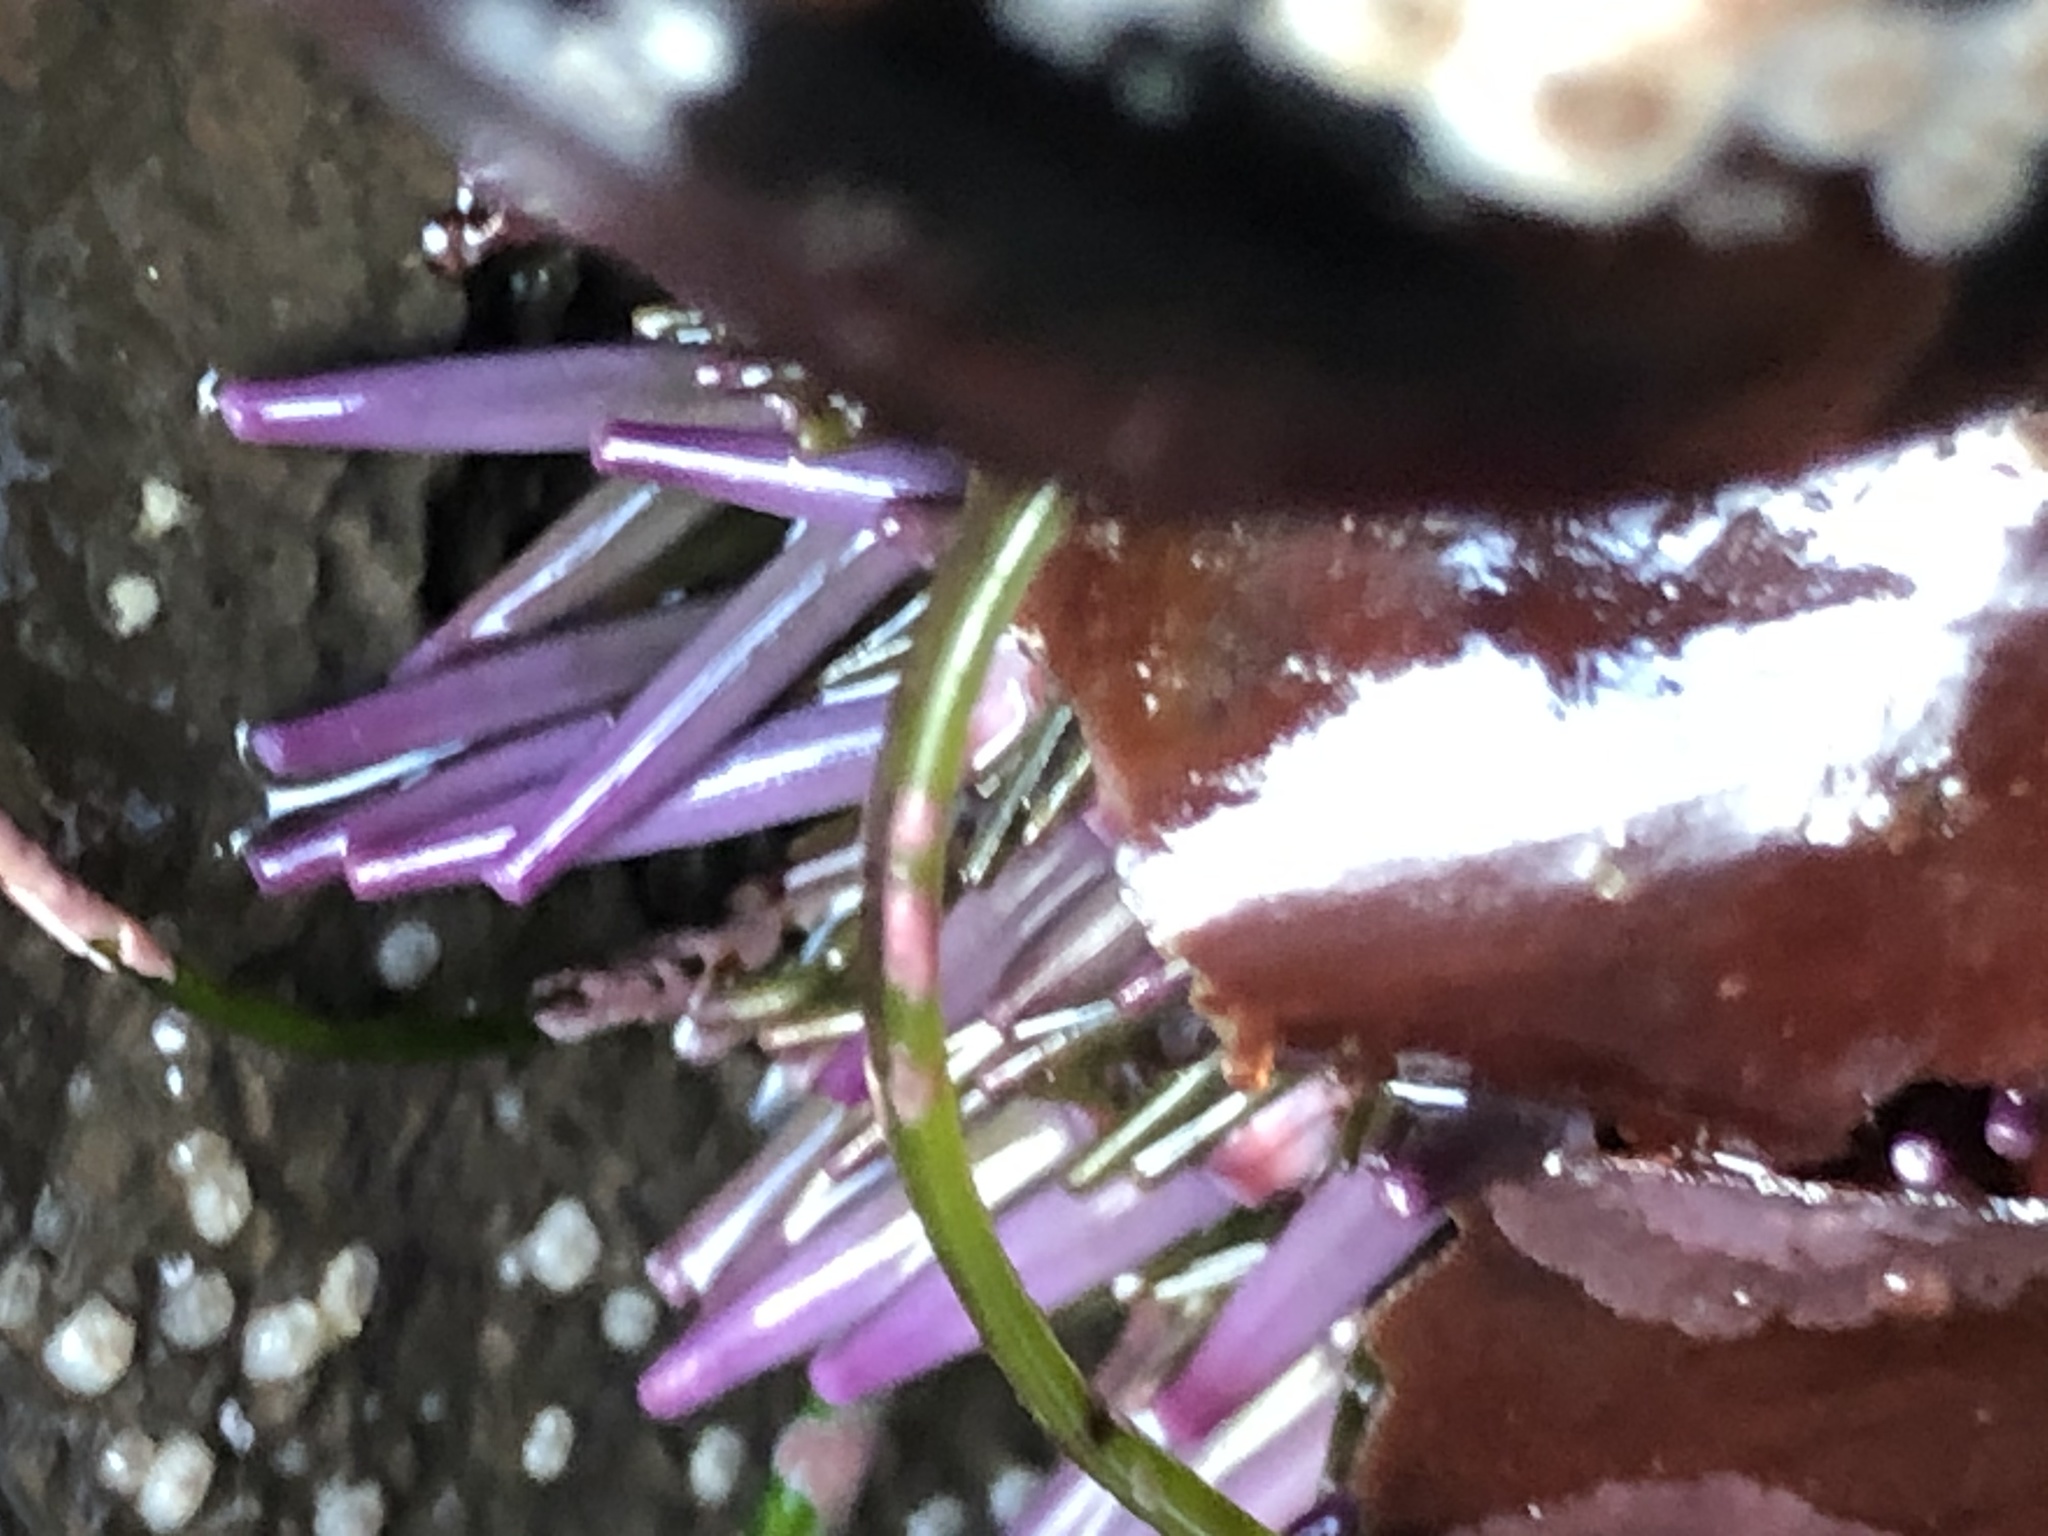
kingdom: Animalia
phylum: Echinodermata
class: Echinoidea
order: Camarodonta
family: Strongylocentrotidae
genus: Strongylocentrotus
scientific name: Strongylocentrotus purpuratus
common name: Purple sea urchin
